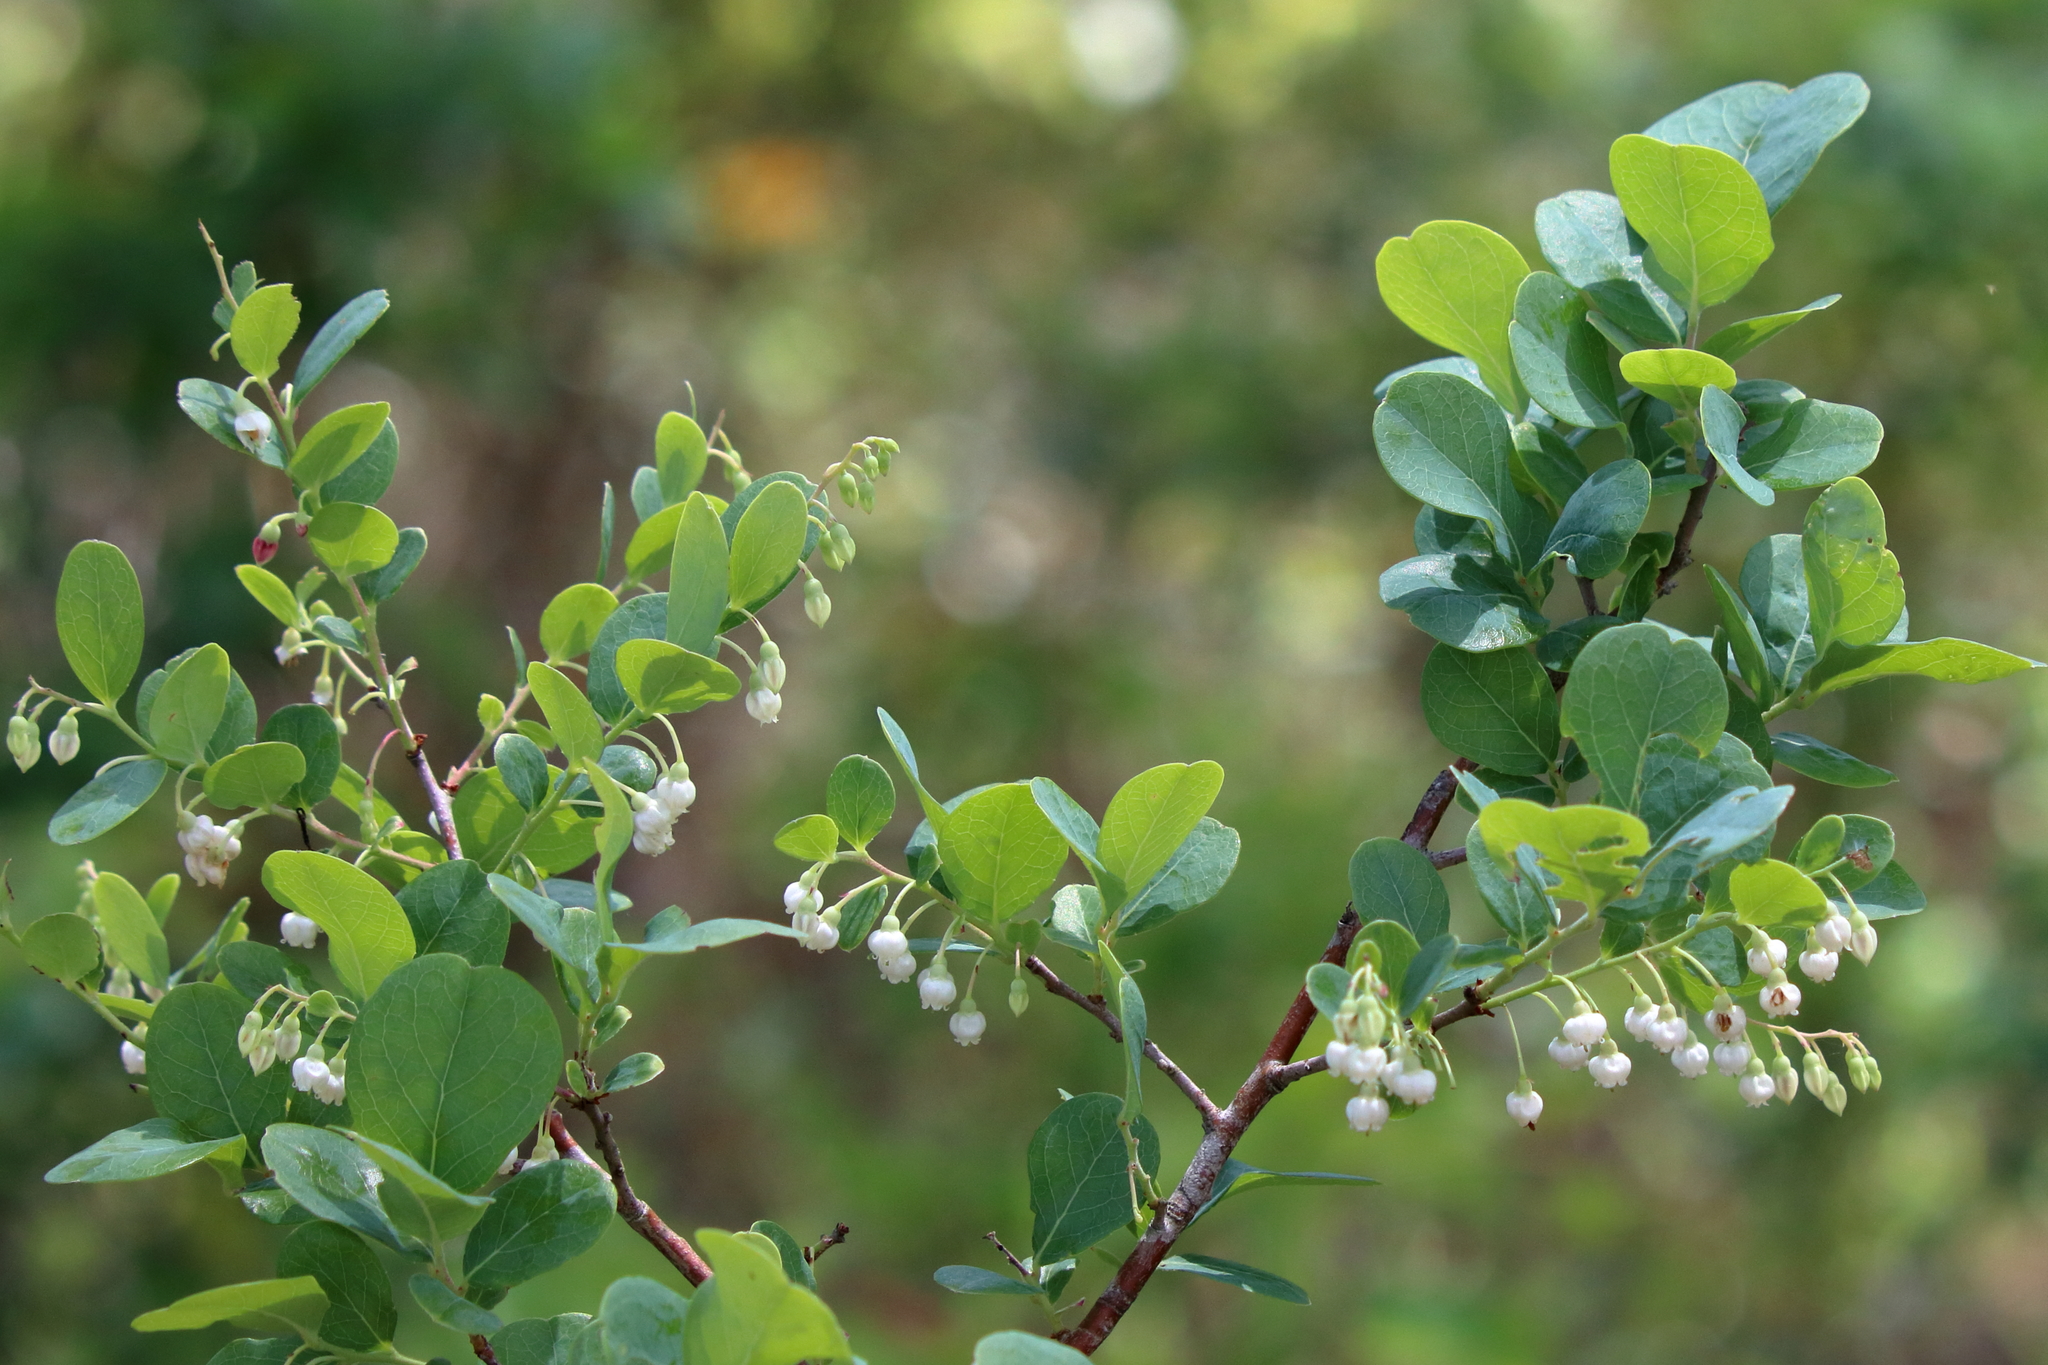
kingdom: Plantae
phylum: Tracheophyta
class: Magnoliopsida
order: Ericales
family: Ericaceae
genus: Vaccinium
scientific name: Vaccinium arboreum
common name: Farkleberry
